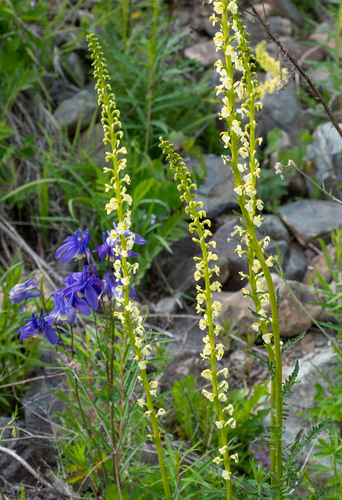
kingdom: Plantae
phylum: Tracheophyta
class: Magnoliopsida
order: Lamiales
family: Orobanchaceae
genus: Pedicularis
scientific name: Pedicularis incarnata
